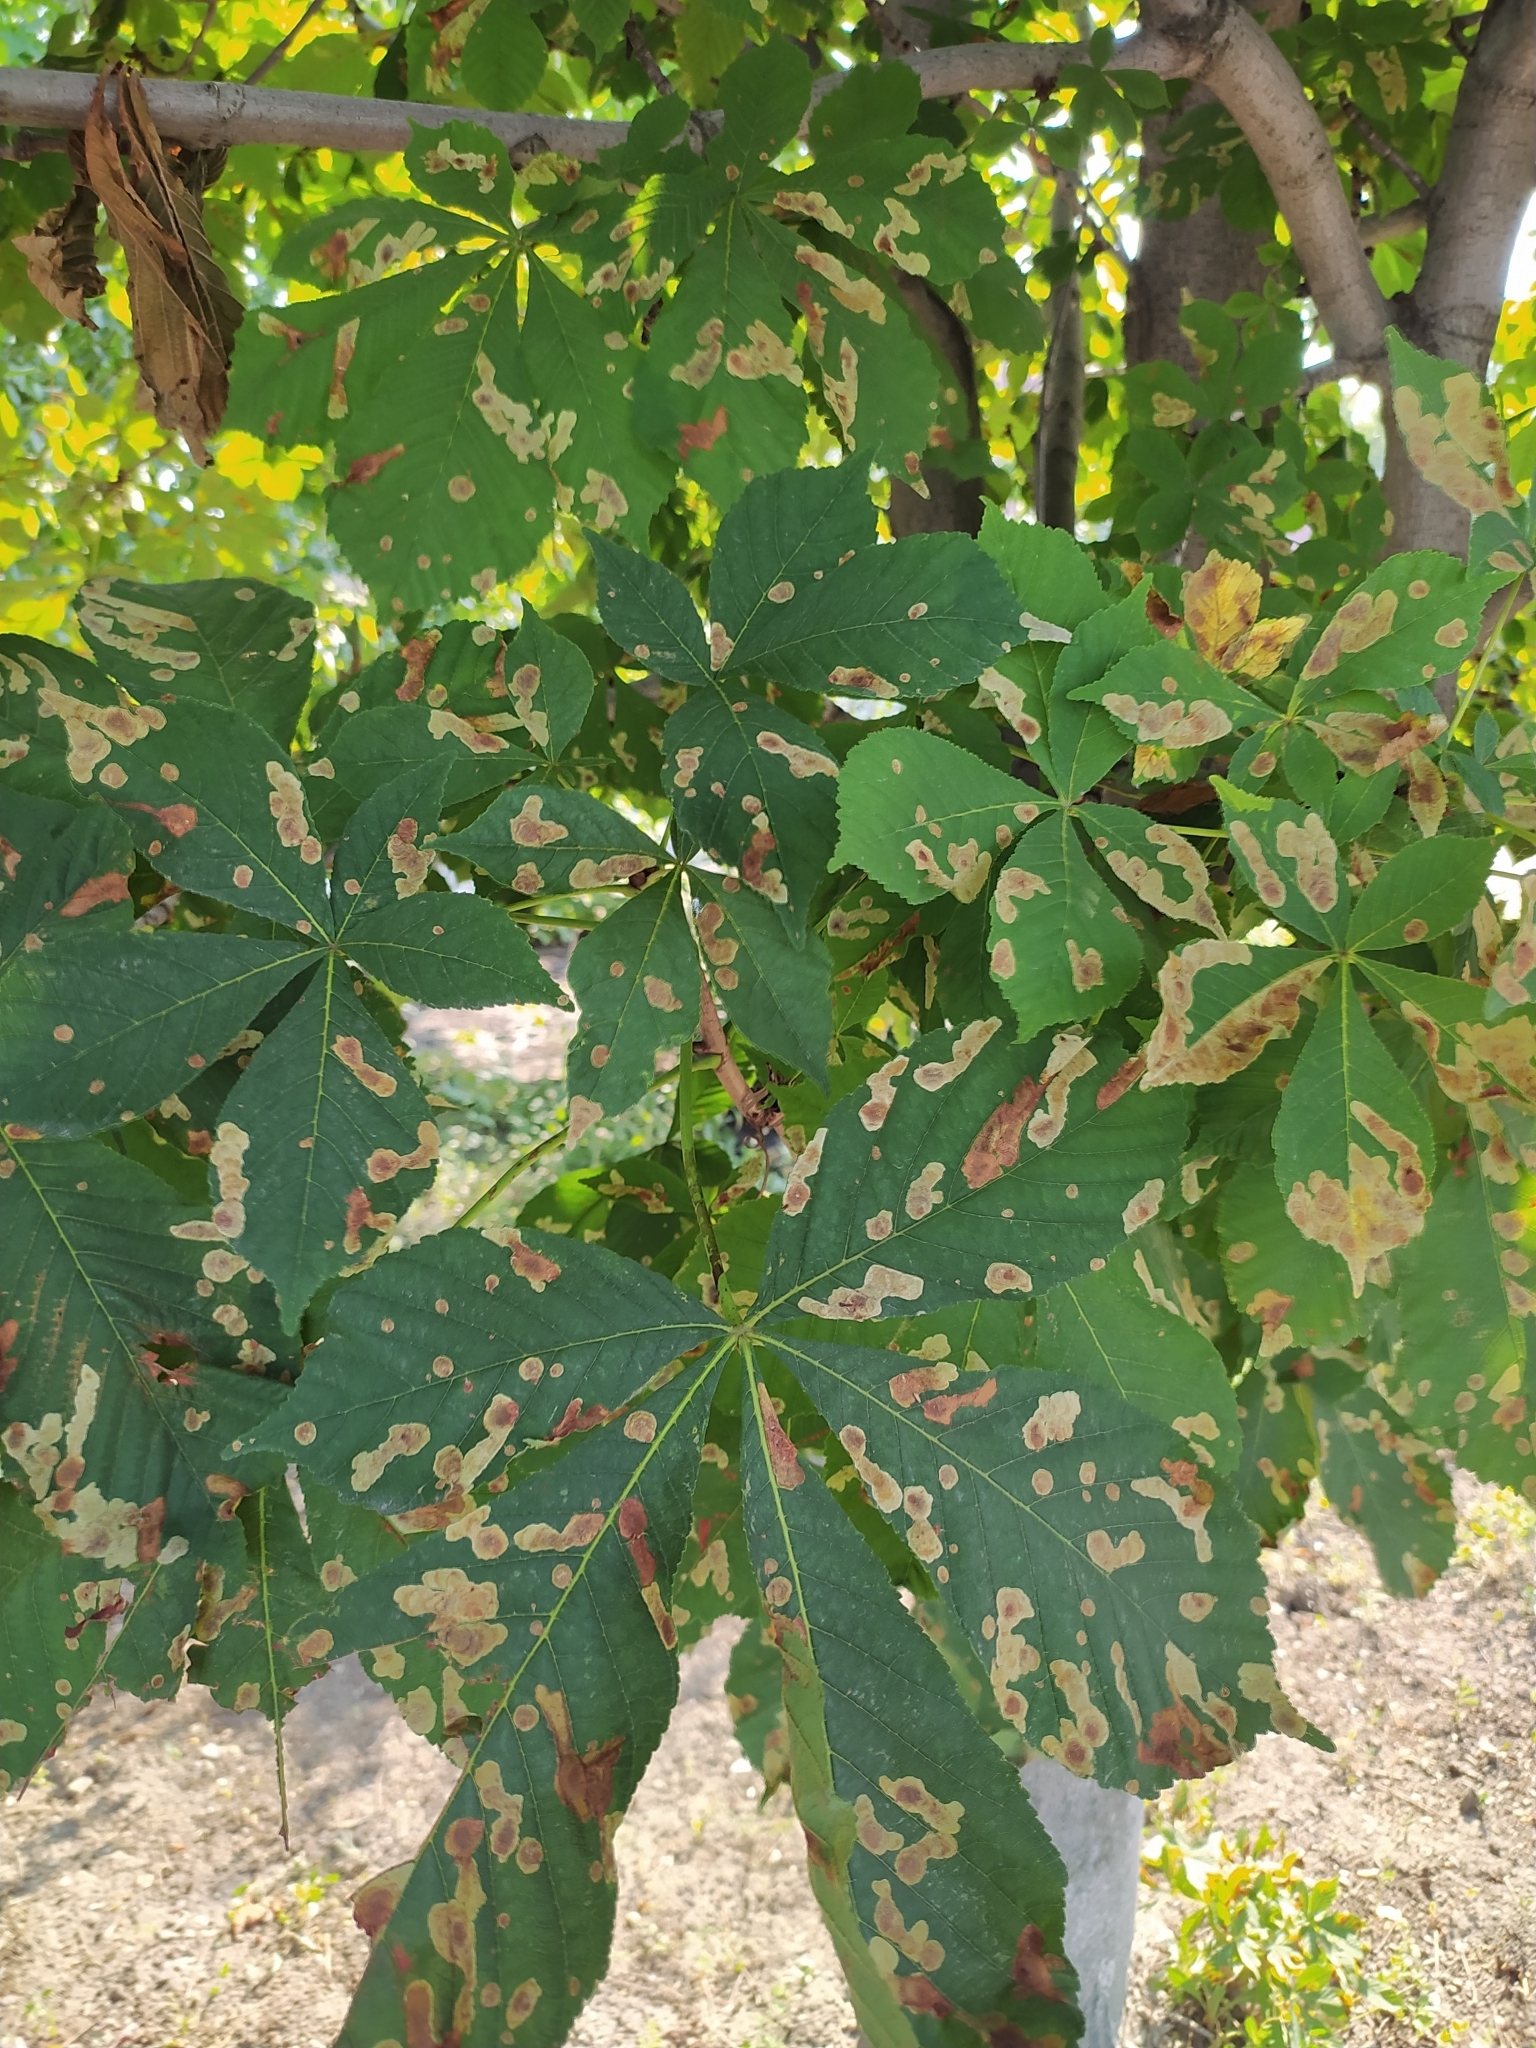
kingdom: Animalia
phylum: Arthropoda
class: Insecta
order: Lepidoptera
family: Gracillariidae
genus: Cameraria
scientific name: Cameraria ohridella
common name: Horse-chestnut leaf-miner
